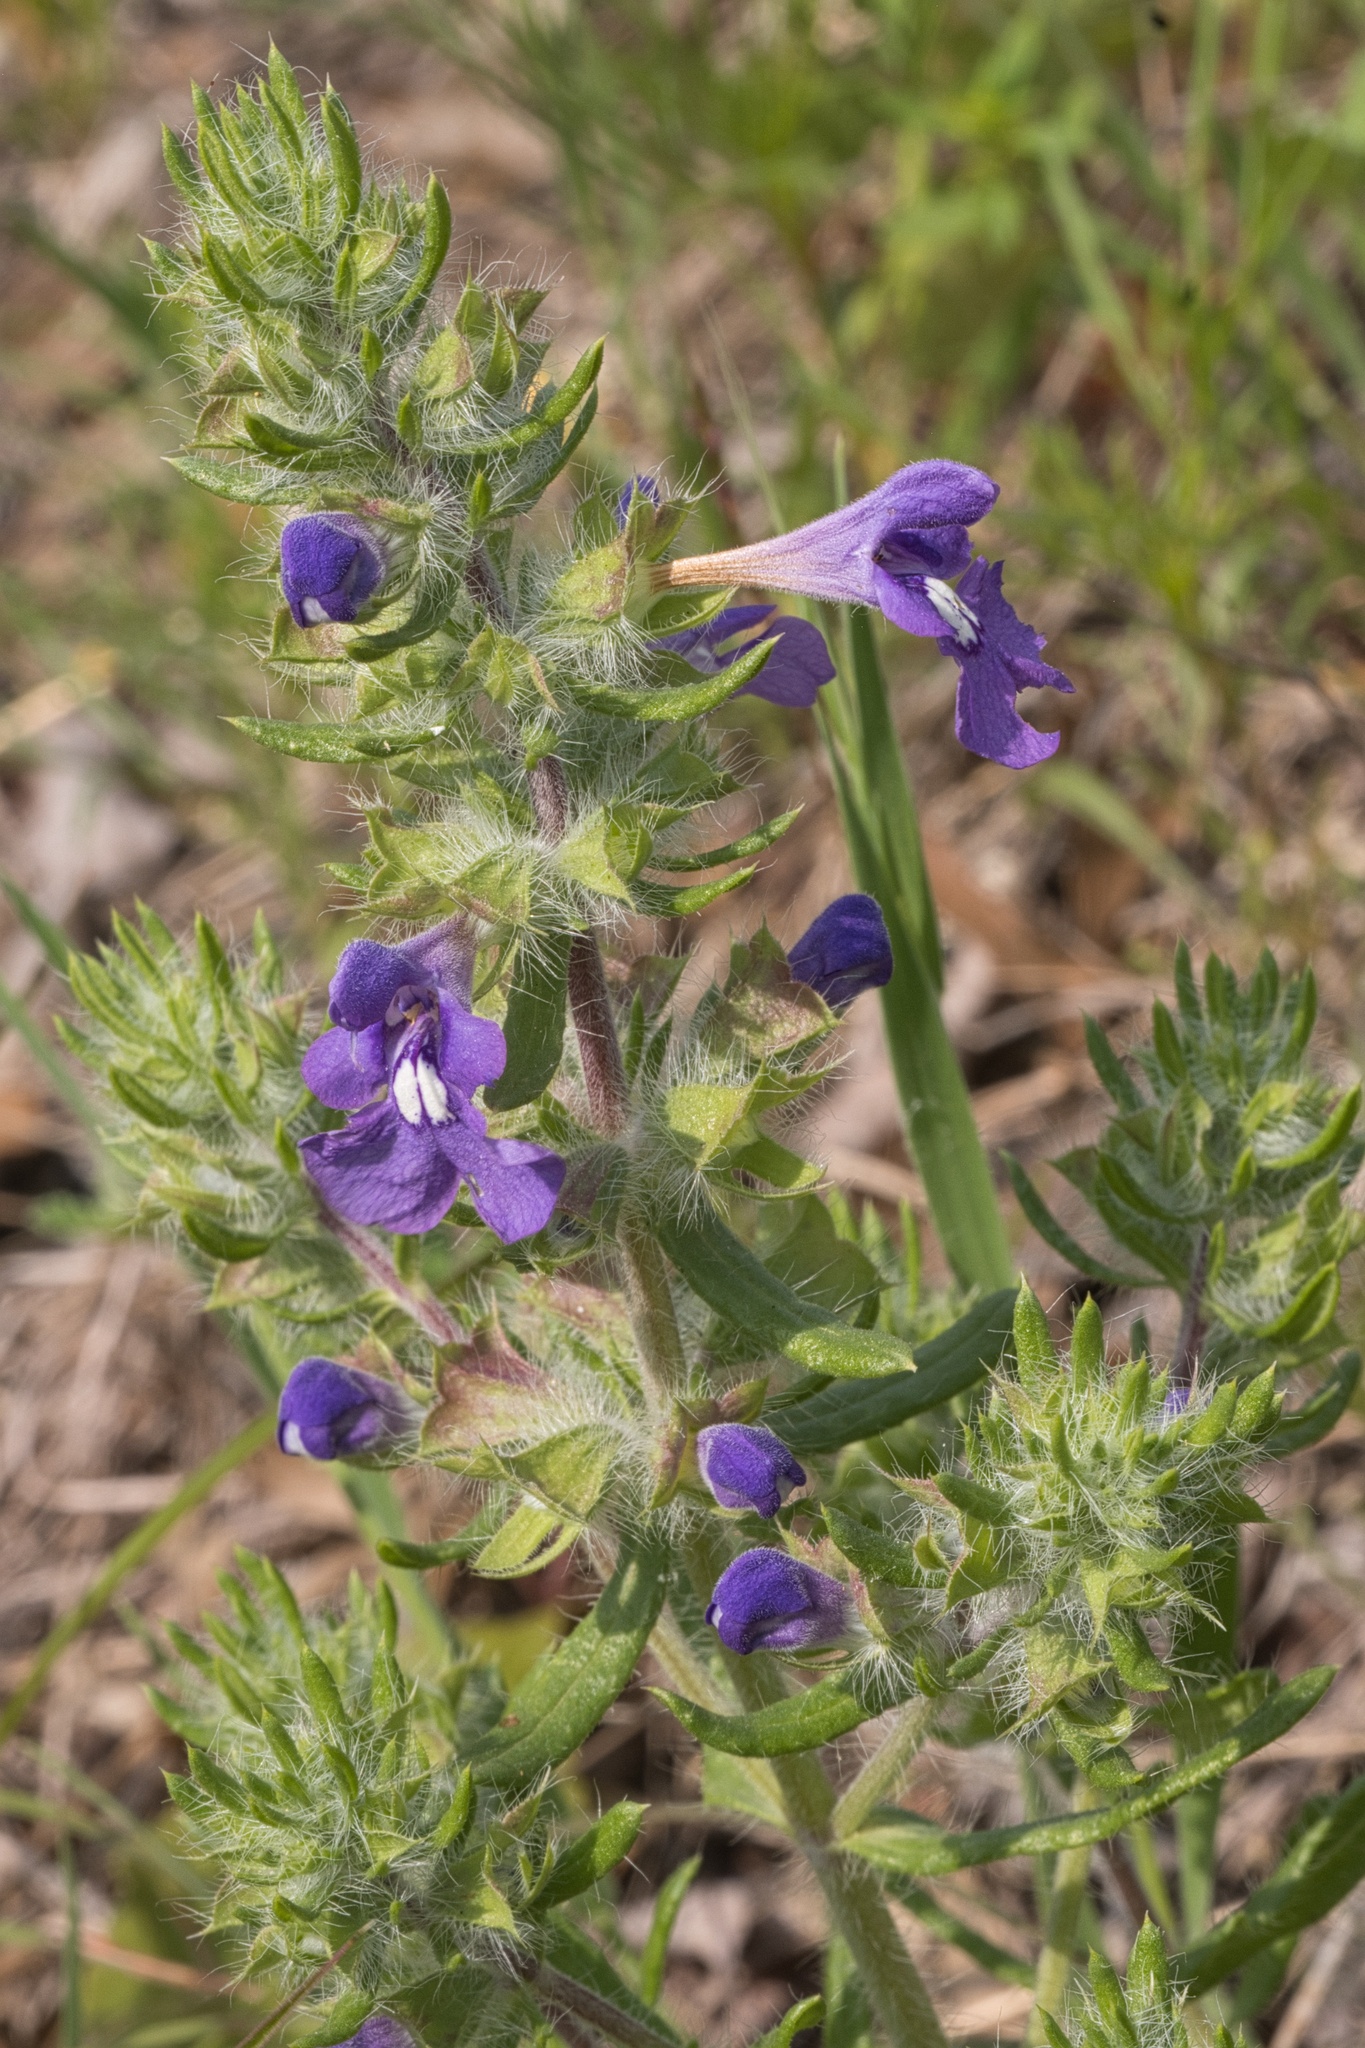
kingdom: Plantae
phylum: Tracheophyta
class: Magnoliopsida
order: Lamiales
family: Lamiaceae
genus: Salvia
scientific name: Salvia texana
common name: Texas sage
